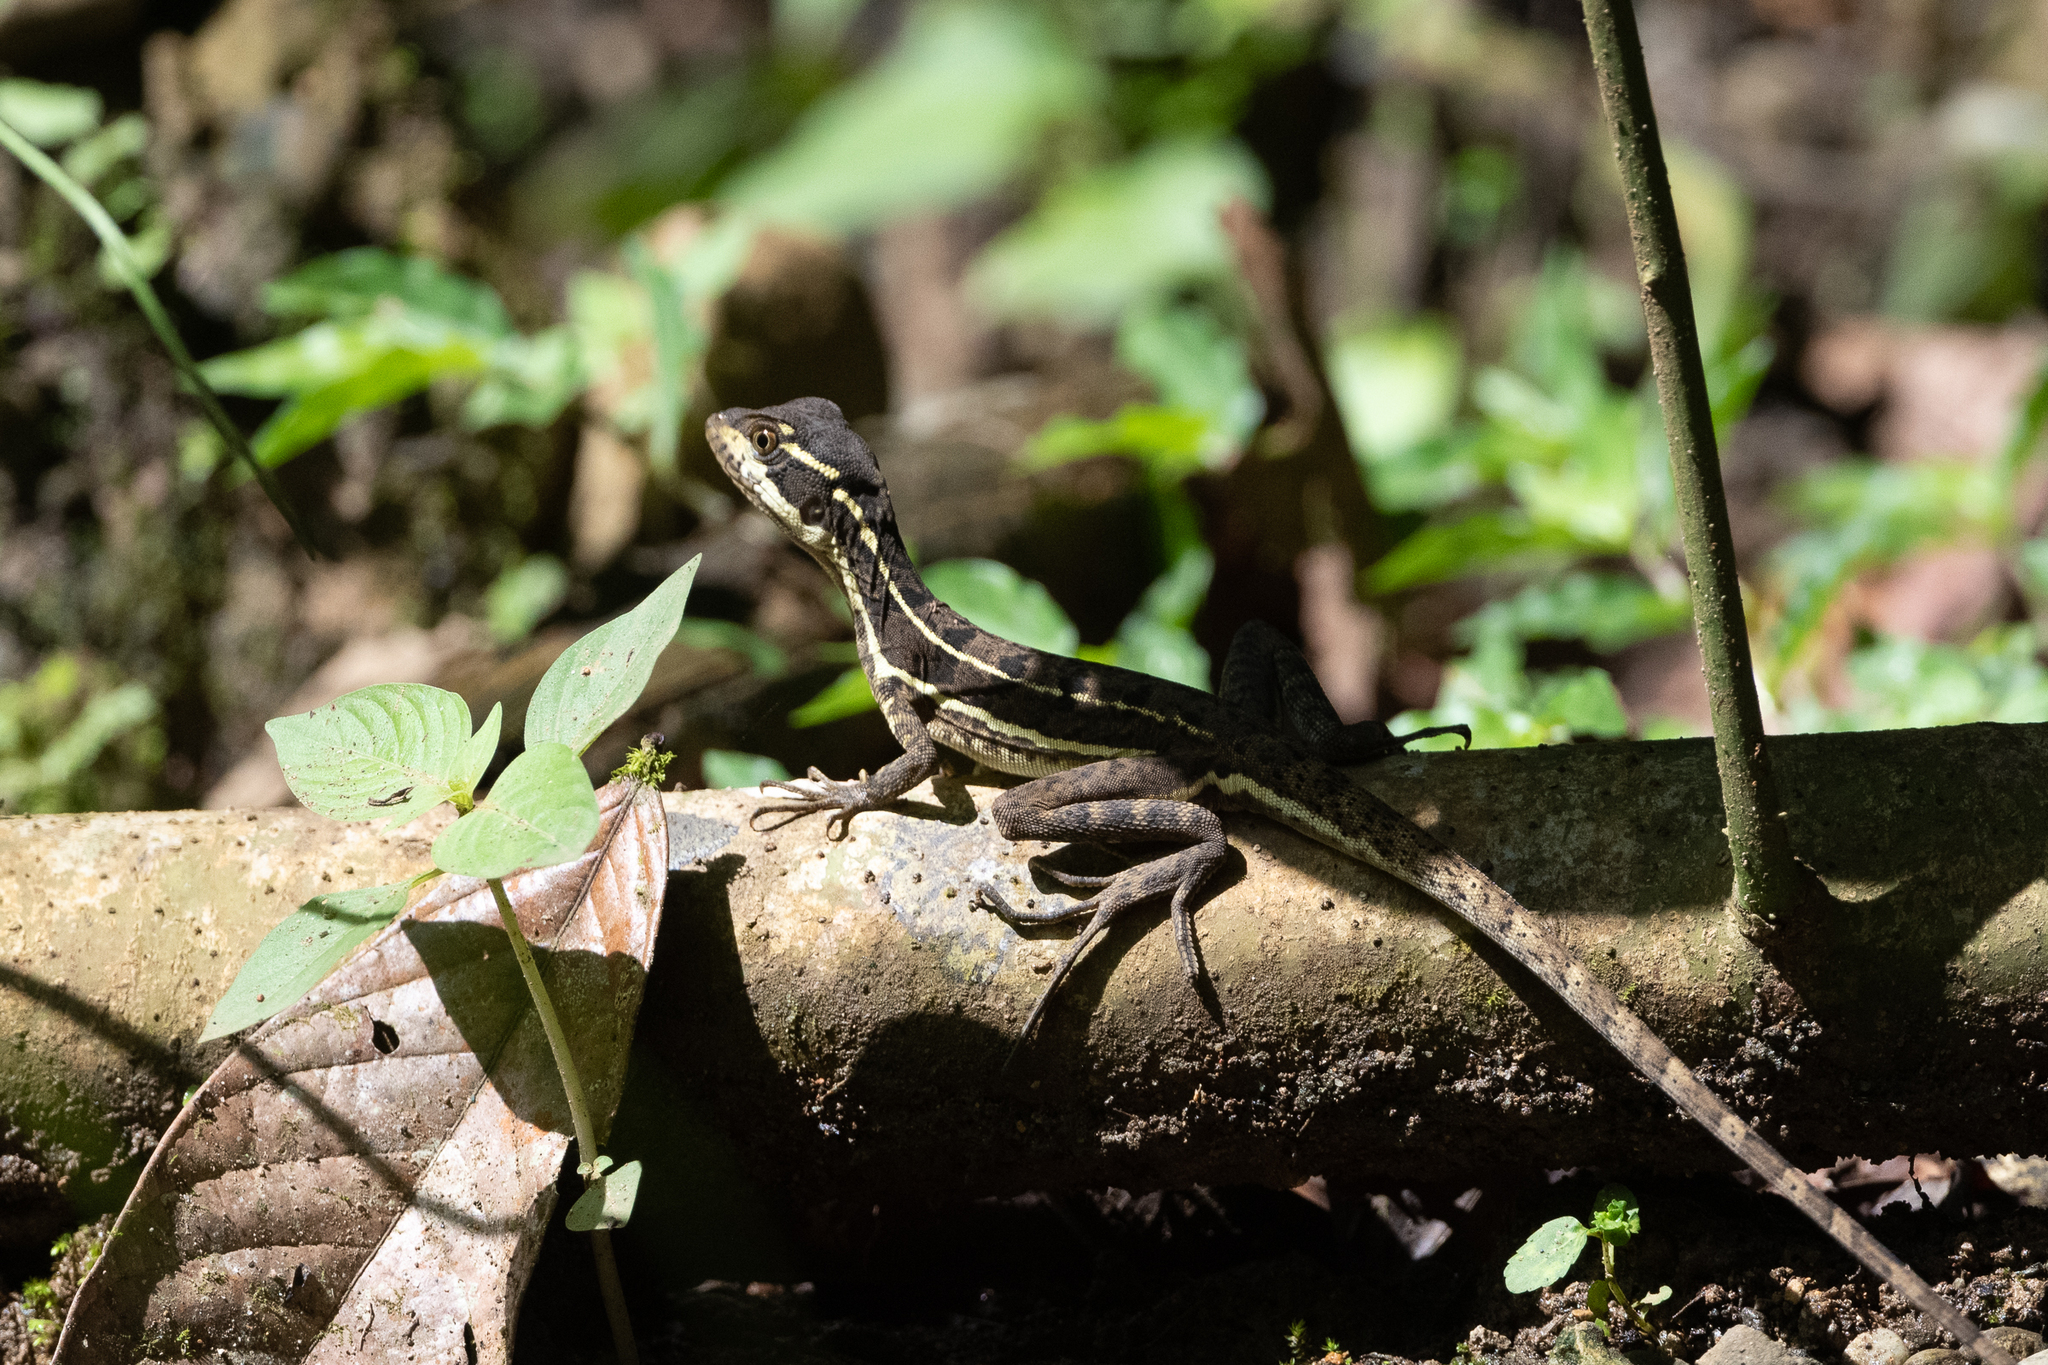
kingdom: Animalia
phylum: Chordata
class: Squamata
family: Corytophanidae
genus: Basiliscus
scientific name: Basiliscus basiliscus
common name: Common basilisk
